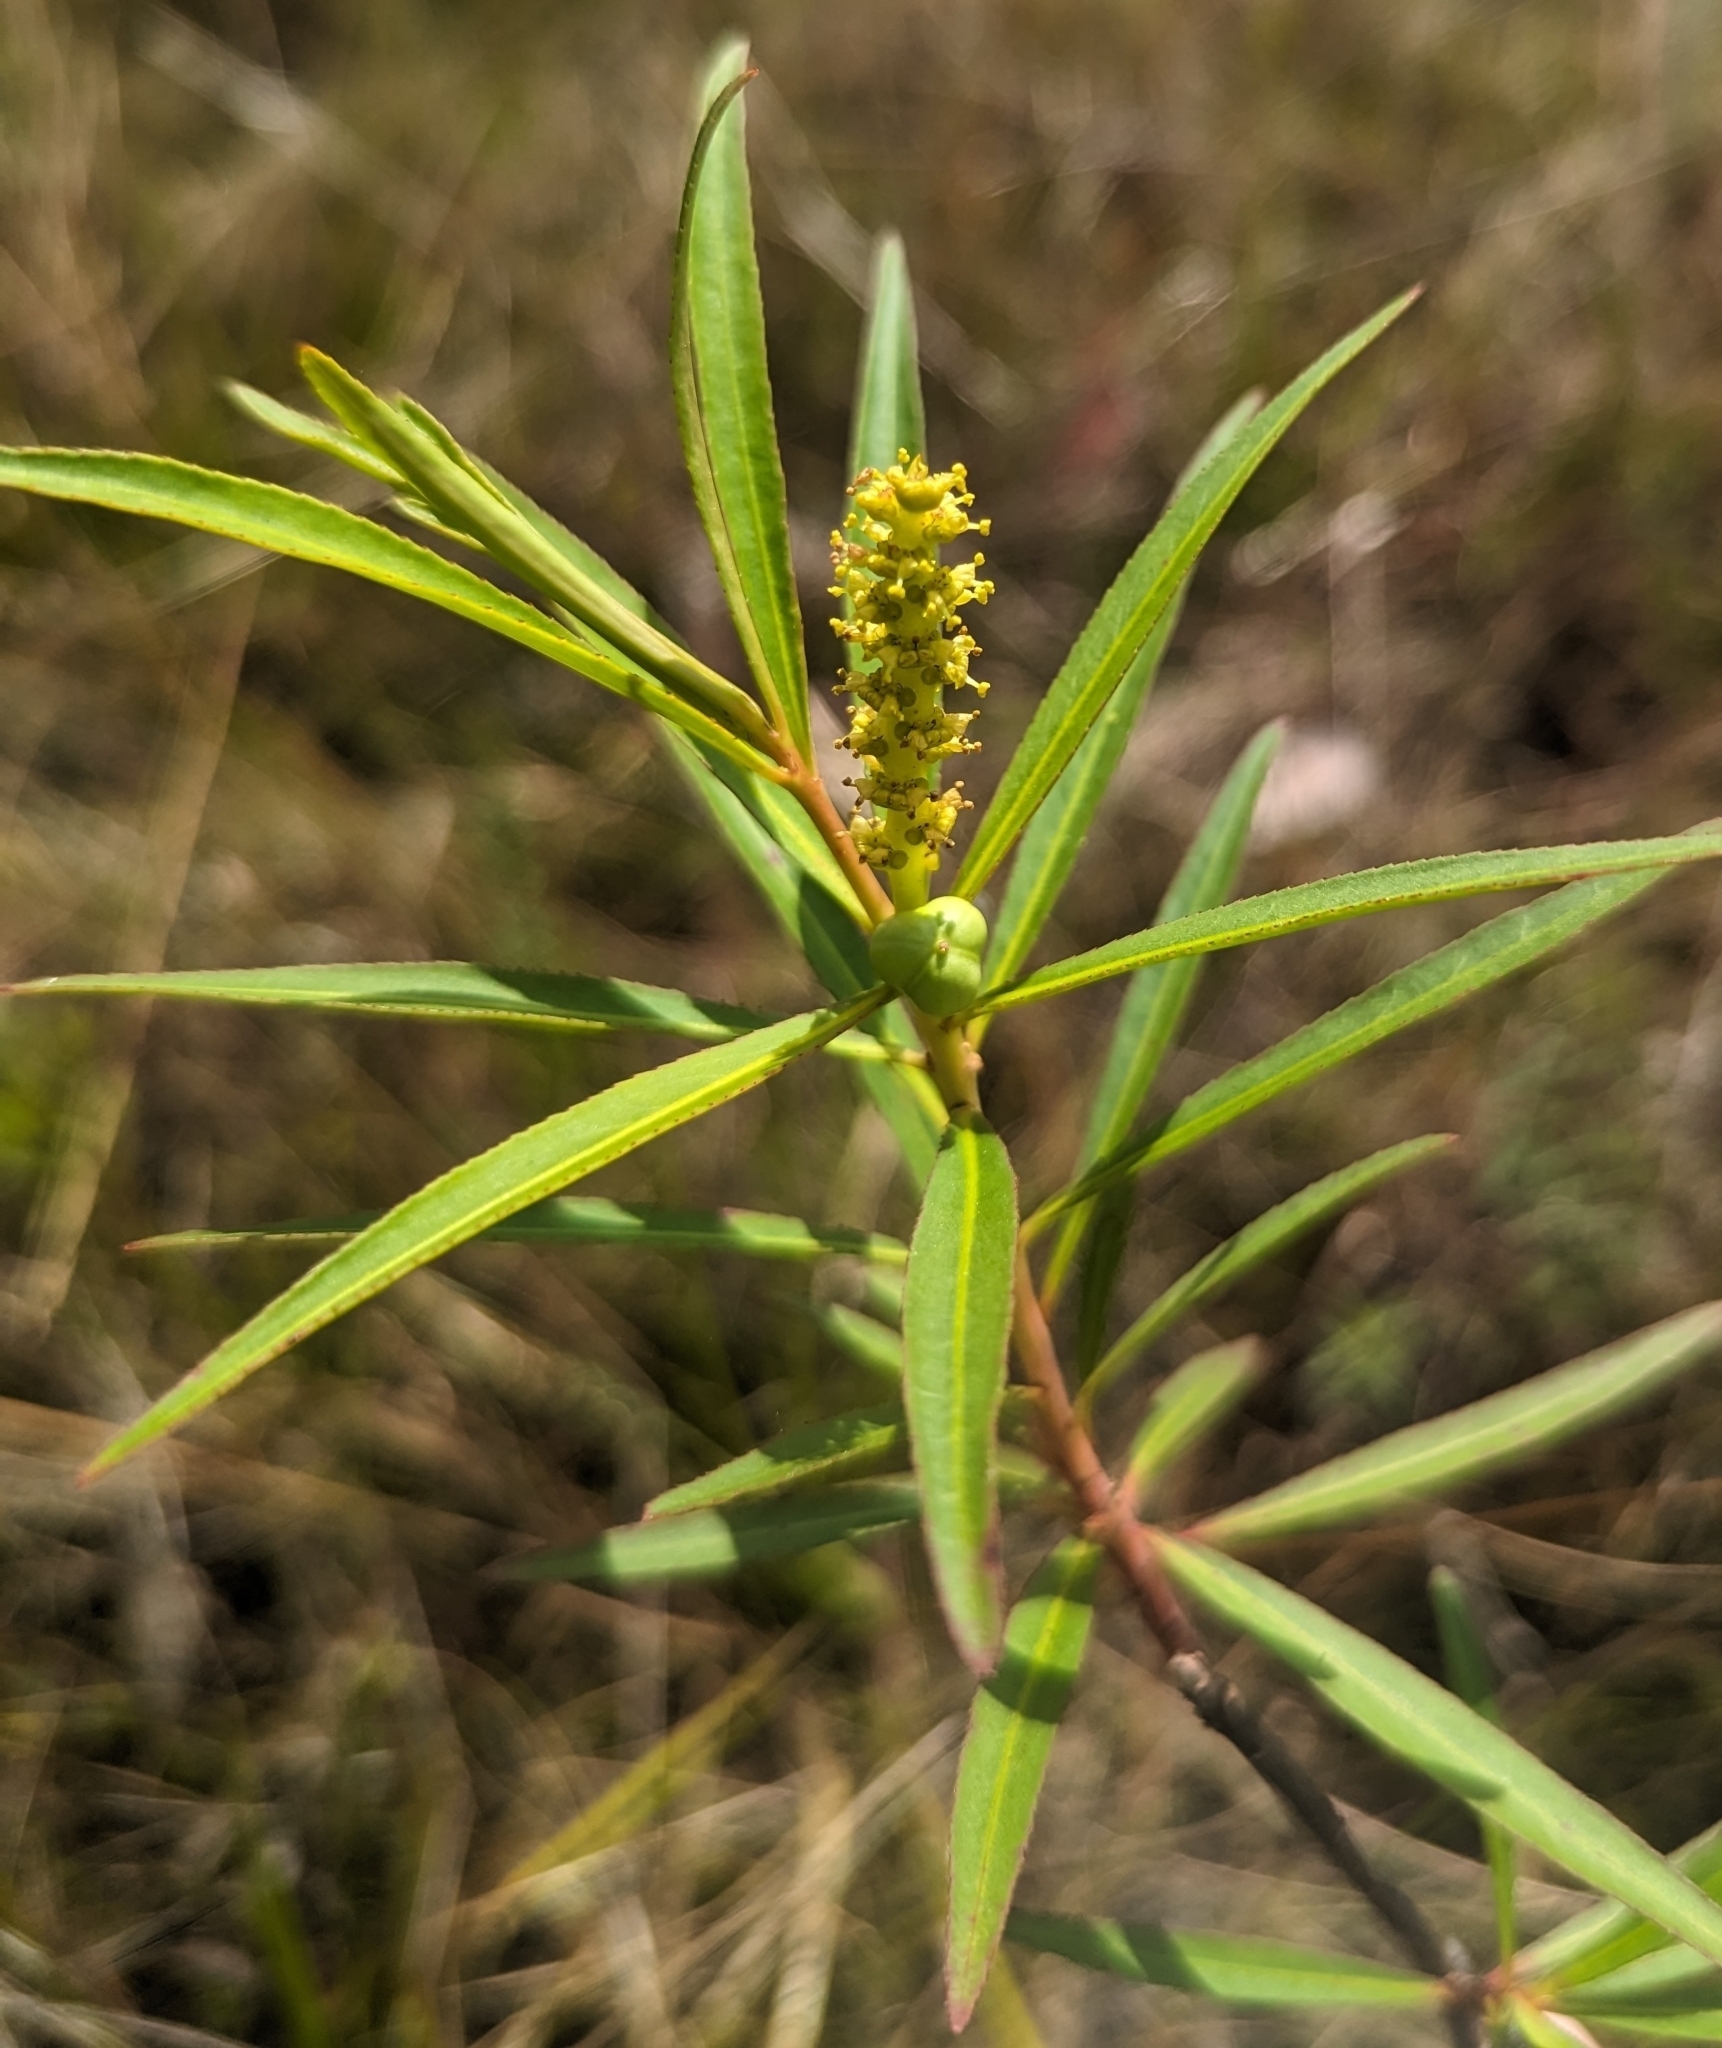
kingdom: Plantae
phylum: Tracheophyta
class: Magnoliopsida
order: Malpighiales
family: Euphorbiaceae
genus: Stillingia
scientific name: Stillingia aquatica
